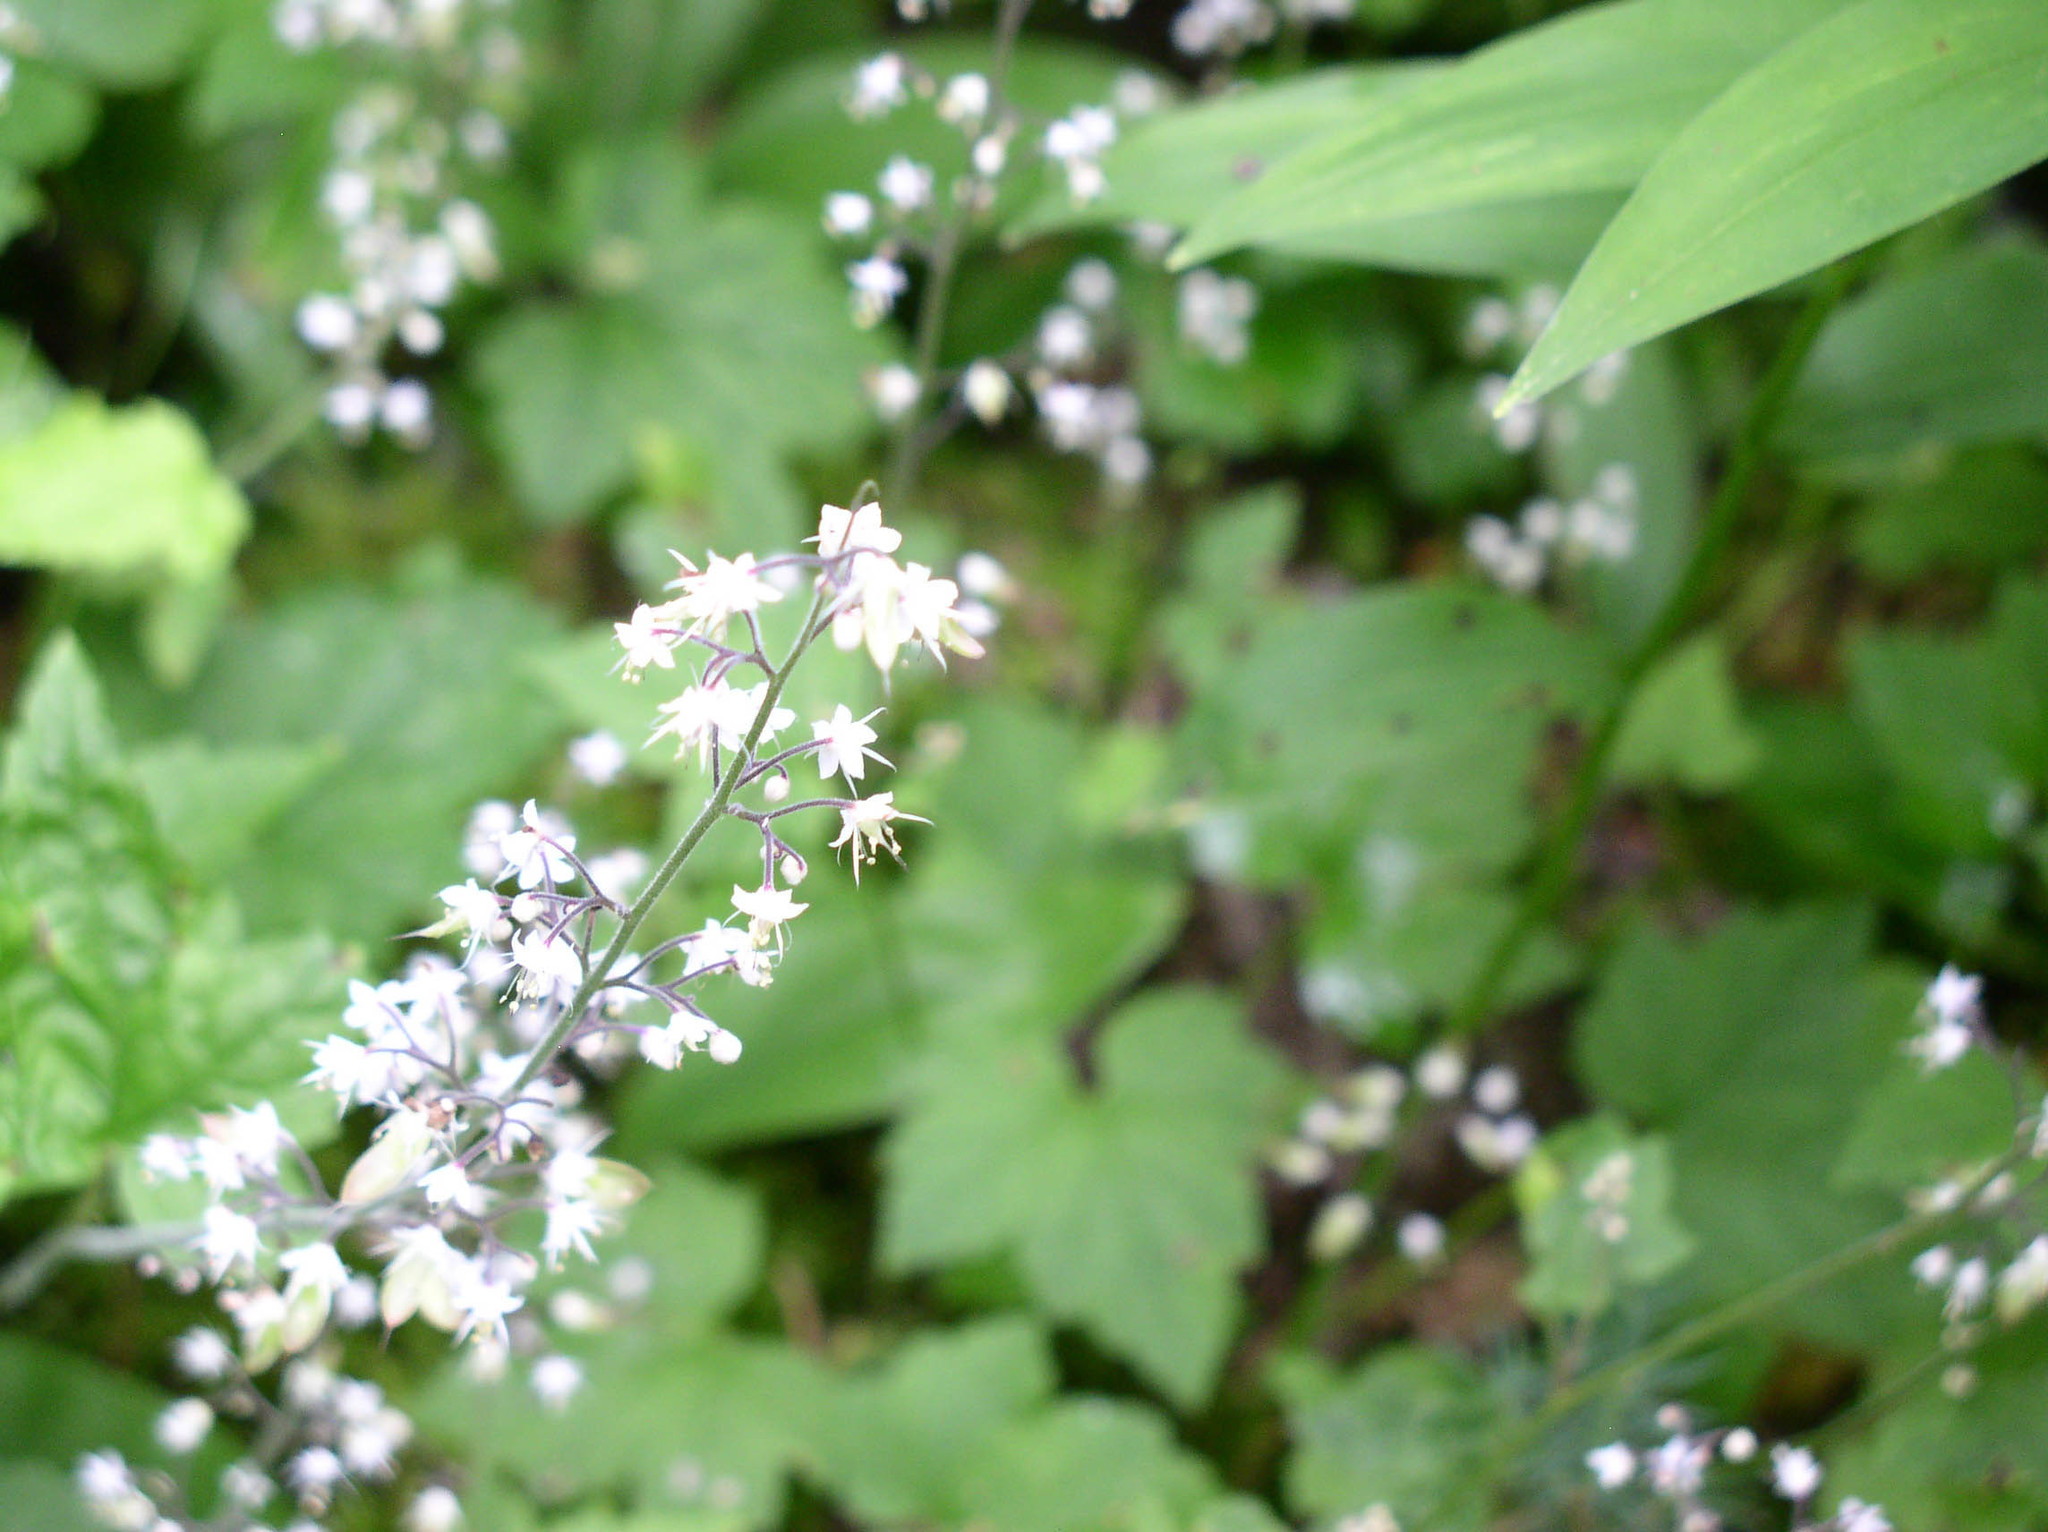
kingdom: Plantae
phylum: Tracheophyta
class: Magnoliopsida
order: Saxifragales
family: Saxifragaceae
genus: Tiarella
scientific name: Tiarella trifoliata
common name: Sugar-scoop
